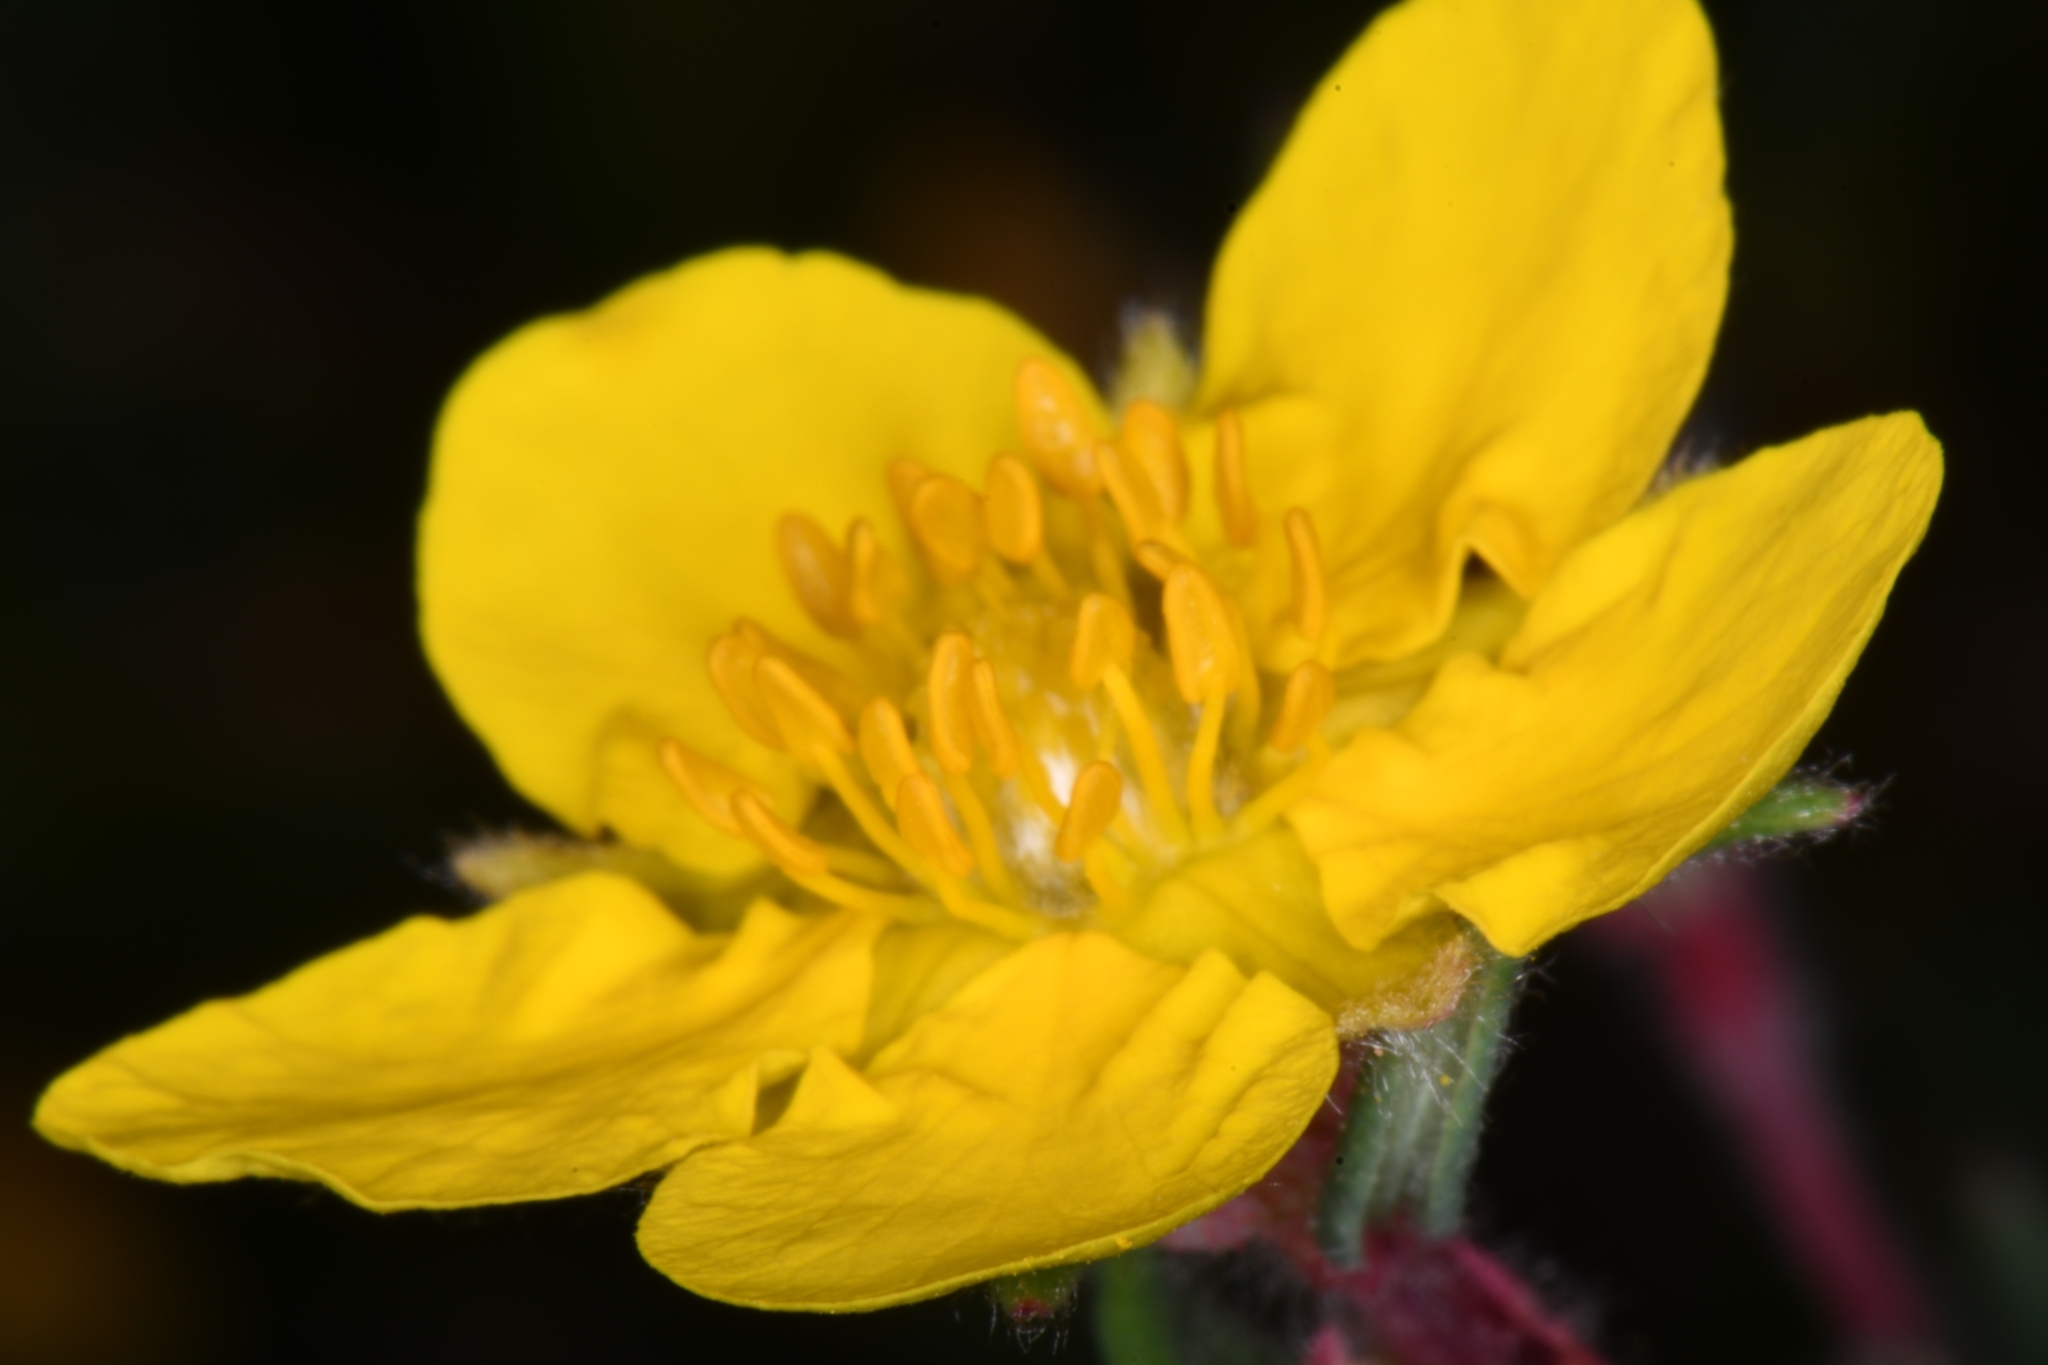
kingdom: Plantae
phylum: Tracheophyta
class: Magnoliopsida
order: Rosales
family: Rosaceae
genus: Dasiphora
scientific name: Dasiphora fruticosa
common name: Shrubby cinquefoil
